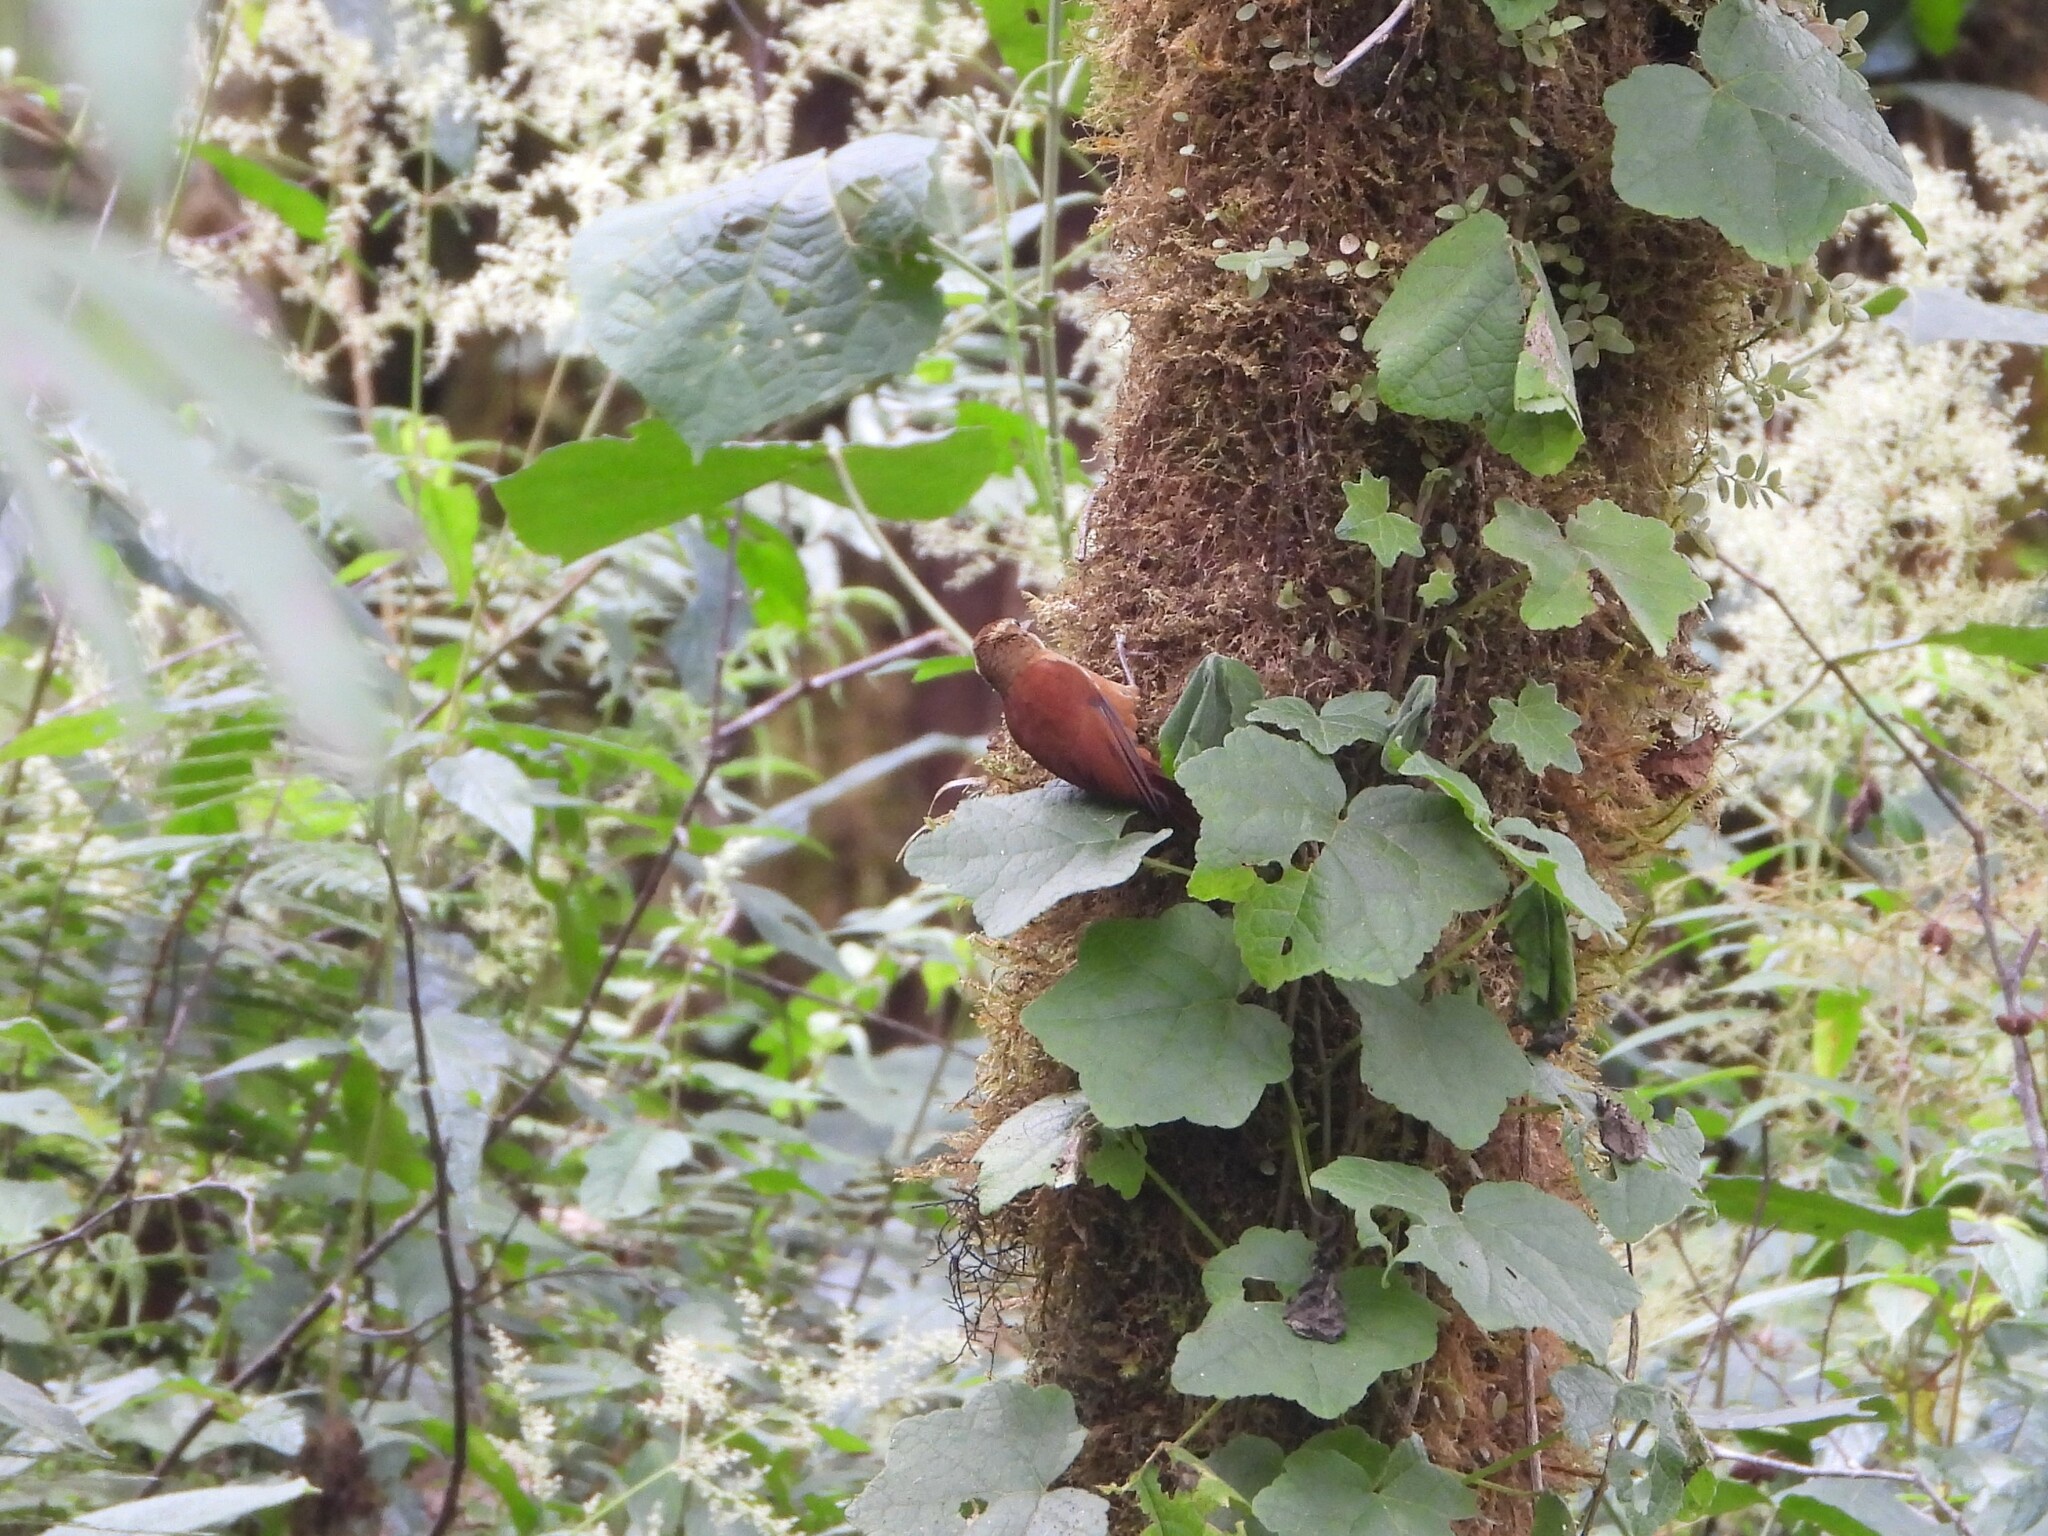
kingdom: Animalia
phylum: Chordata
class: Aves
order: Passeriformes
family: Furnariidae
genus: Margarornis
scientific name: Margarornis rubiginosus
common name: Ruddy treerunner
